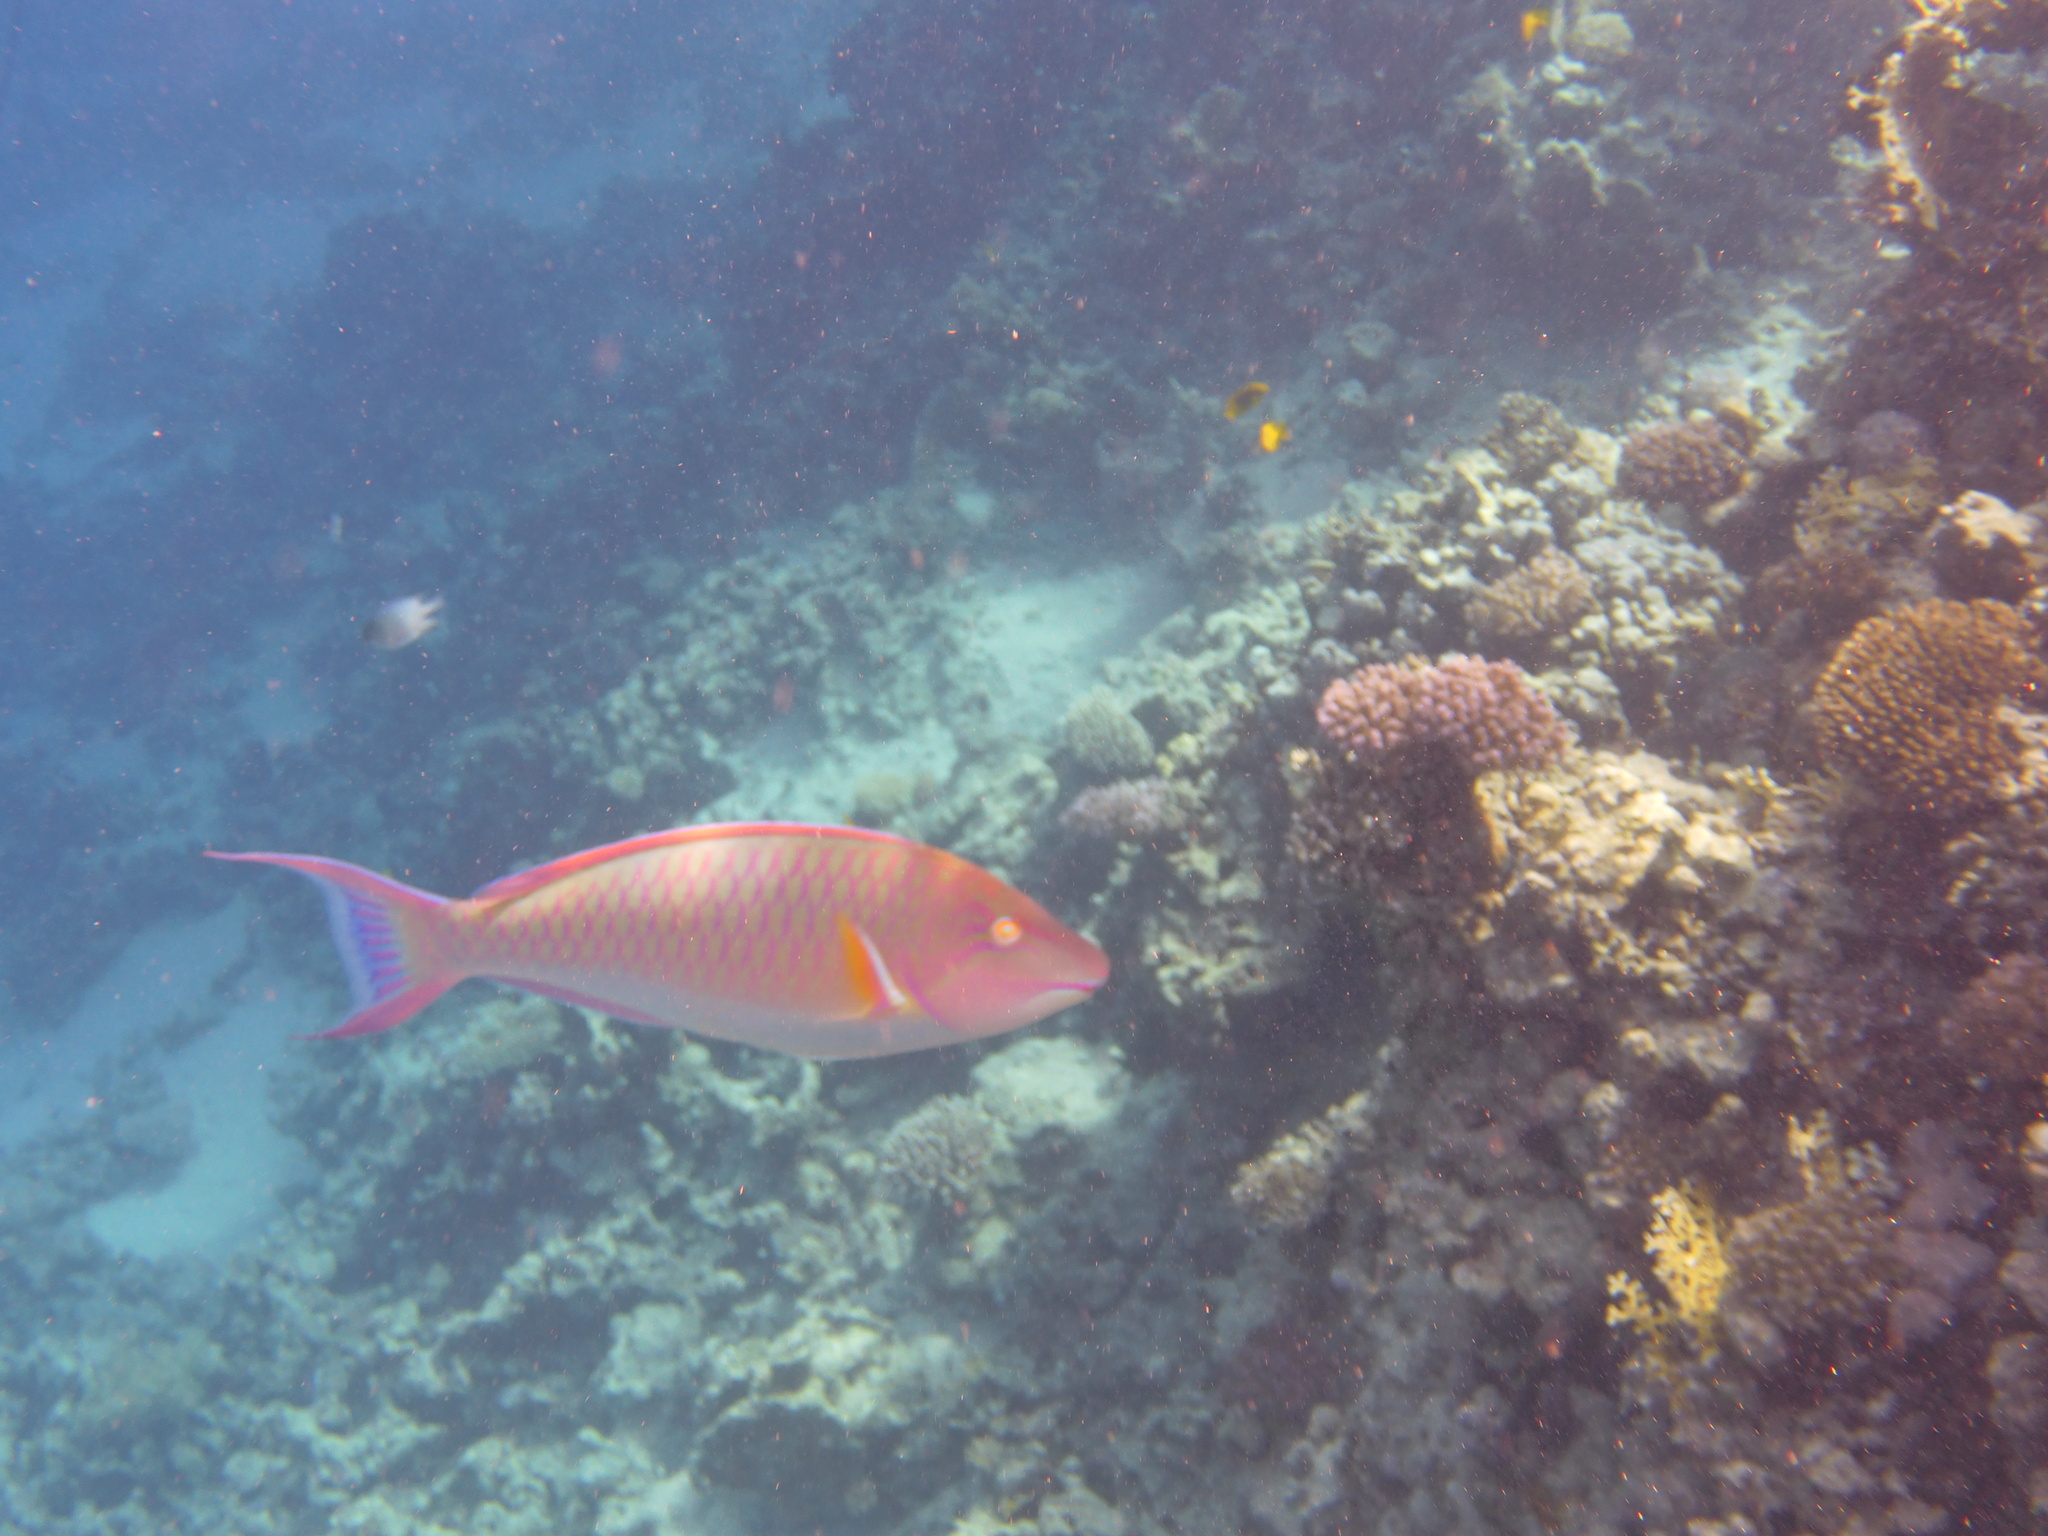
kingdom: Animalia
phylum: Chordata
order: Perciformes
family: Scaridae
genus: Hipposcarus
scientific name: Hipposcarus harid
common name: Candelamoa parrotfish
